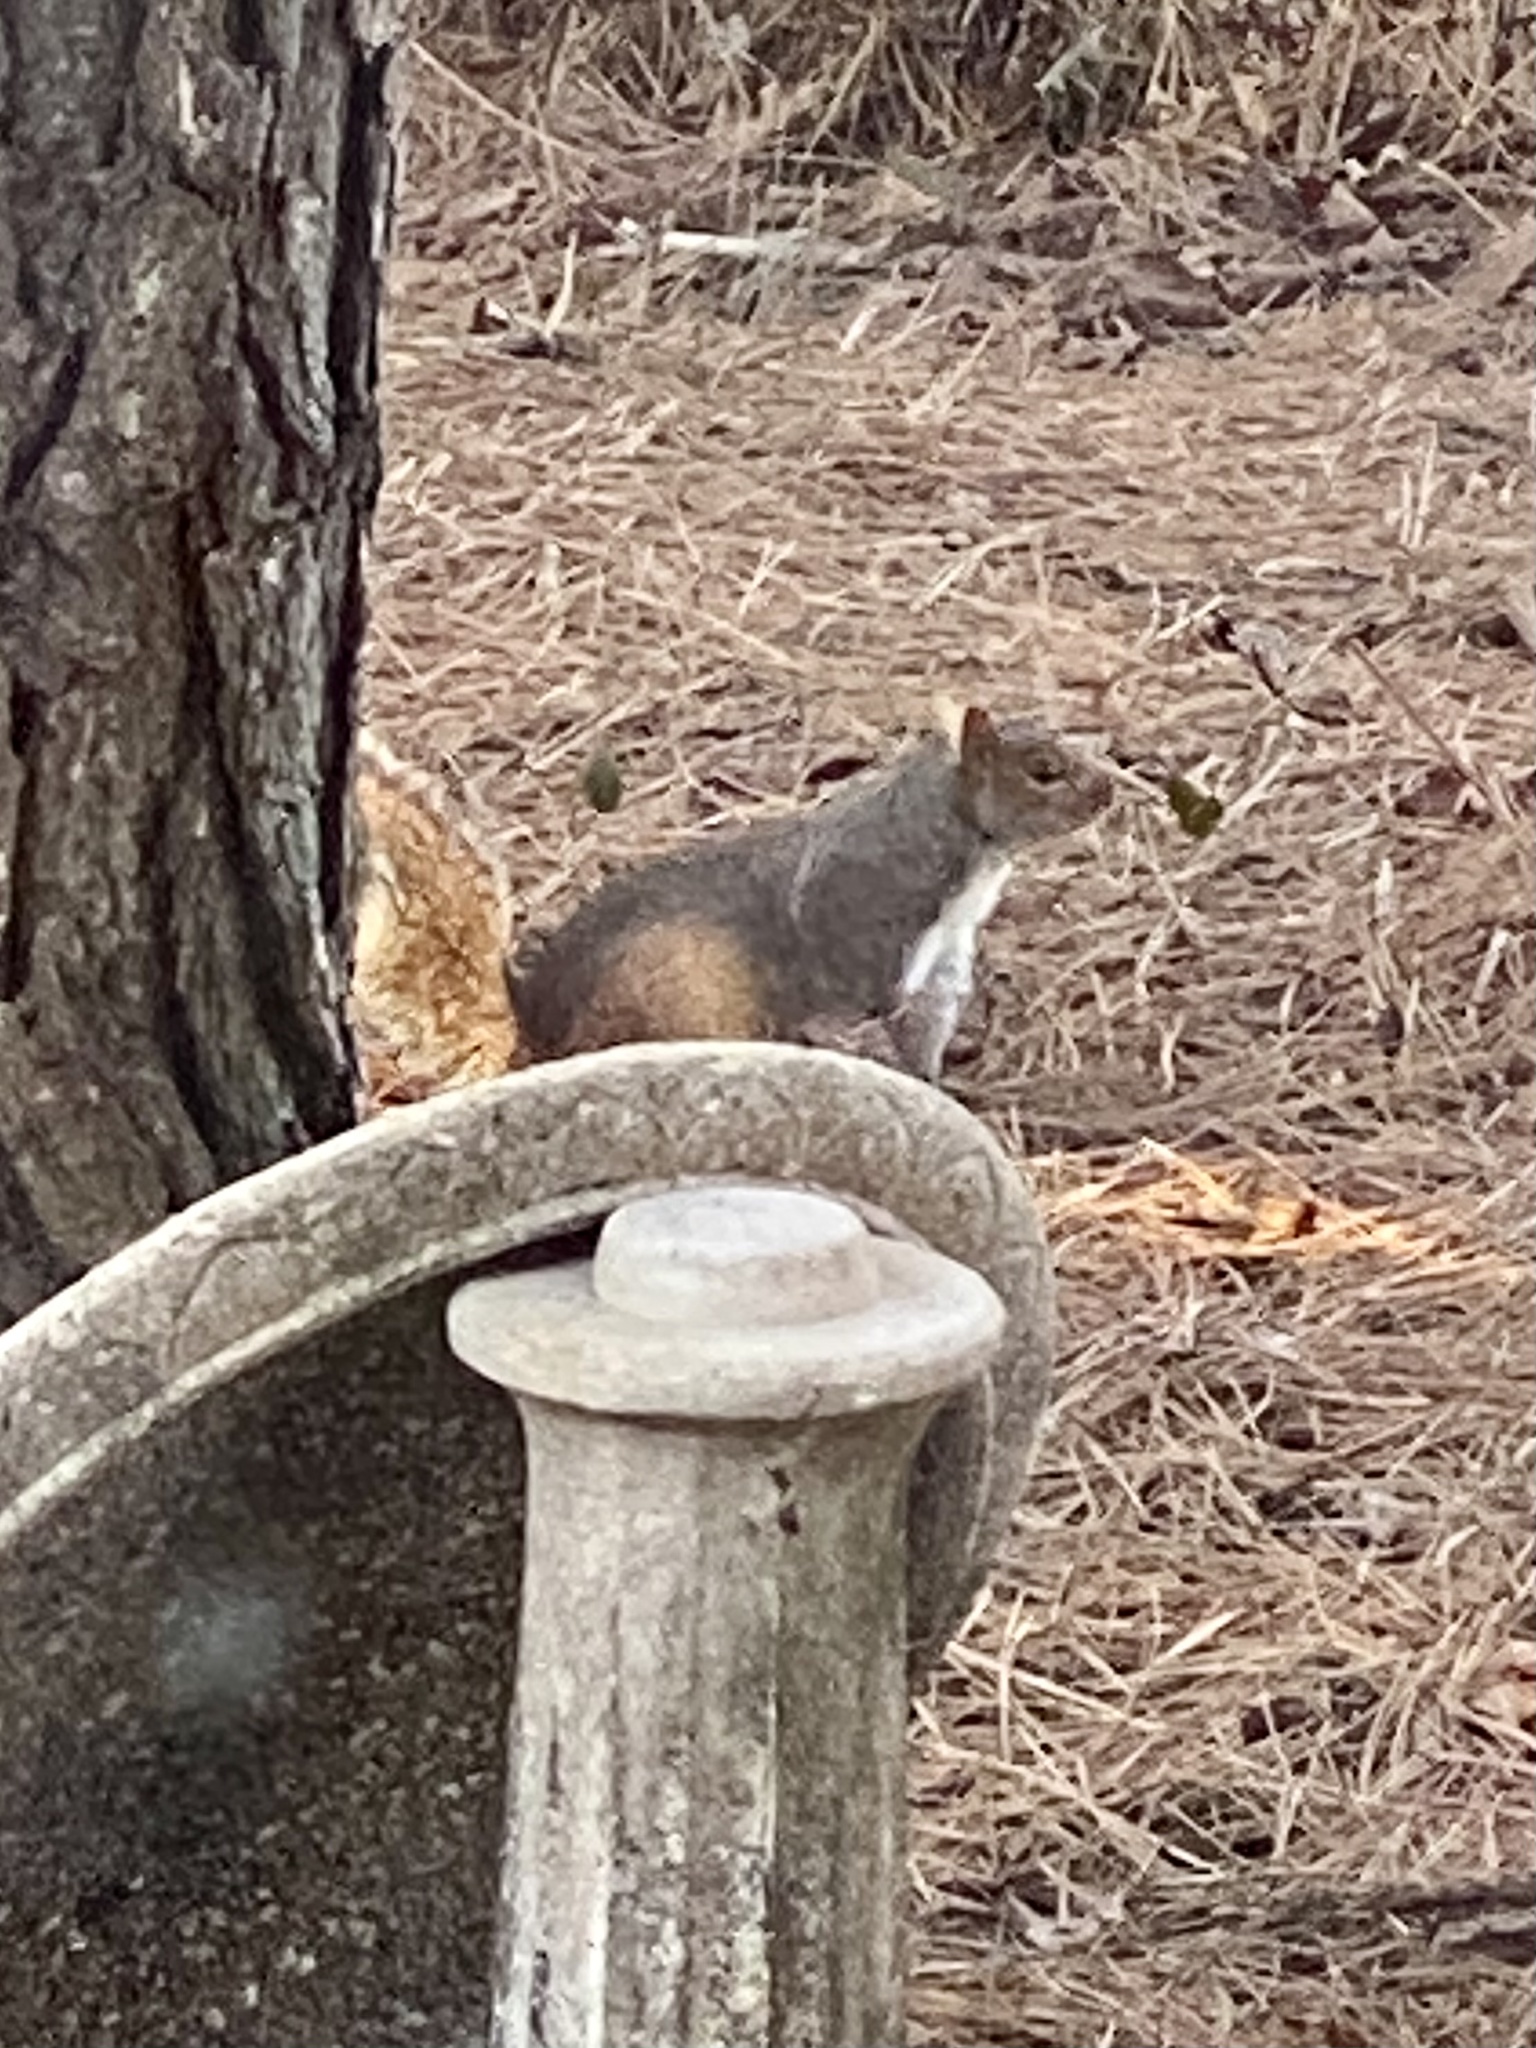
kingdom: Animalia
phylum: Chordata
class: Mammalia
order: Rodentia
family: Sciuridae
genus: Sciurus
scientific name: Sciurus carolinensis
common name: Eastern gray squirrel
